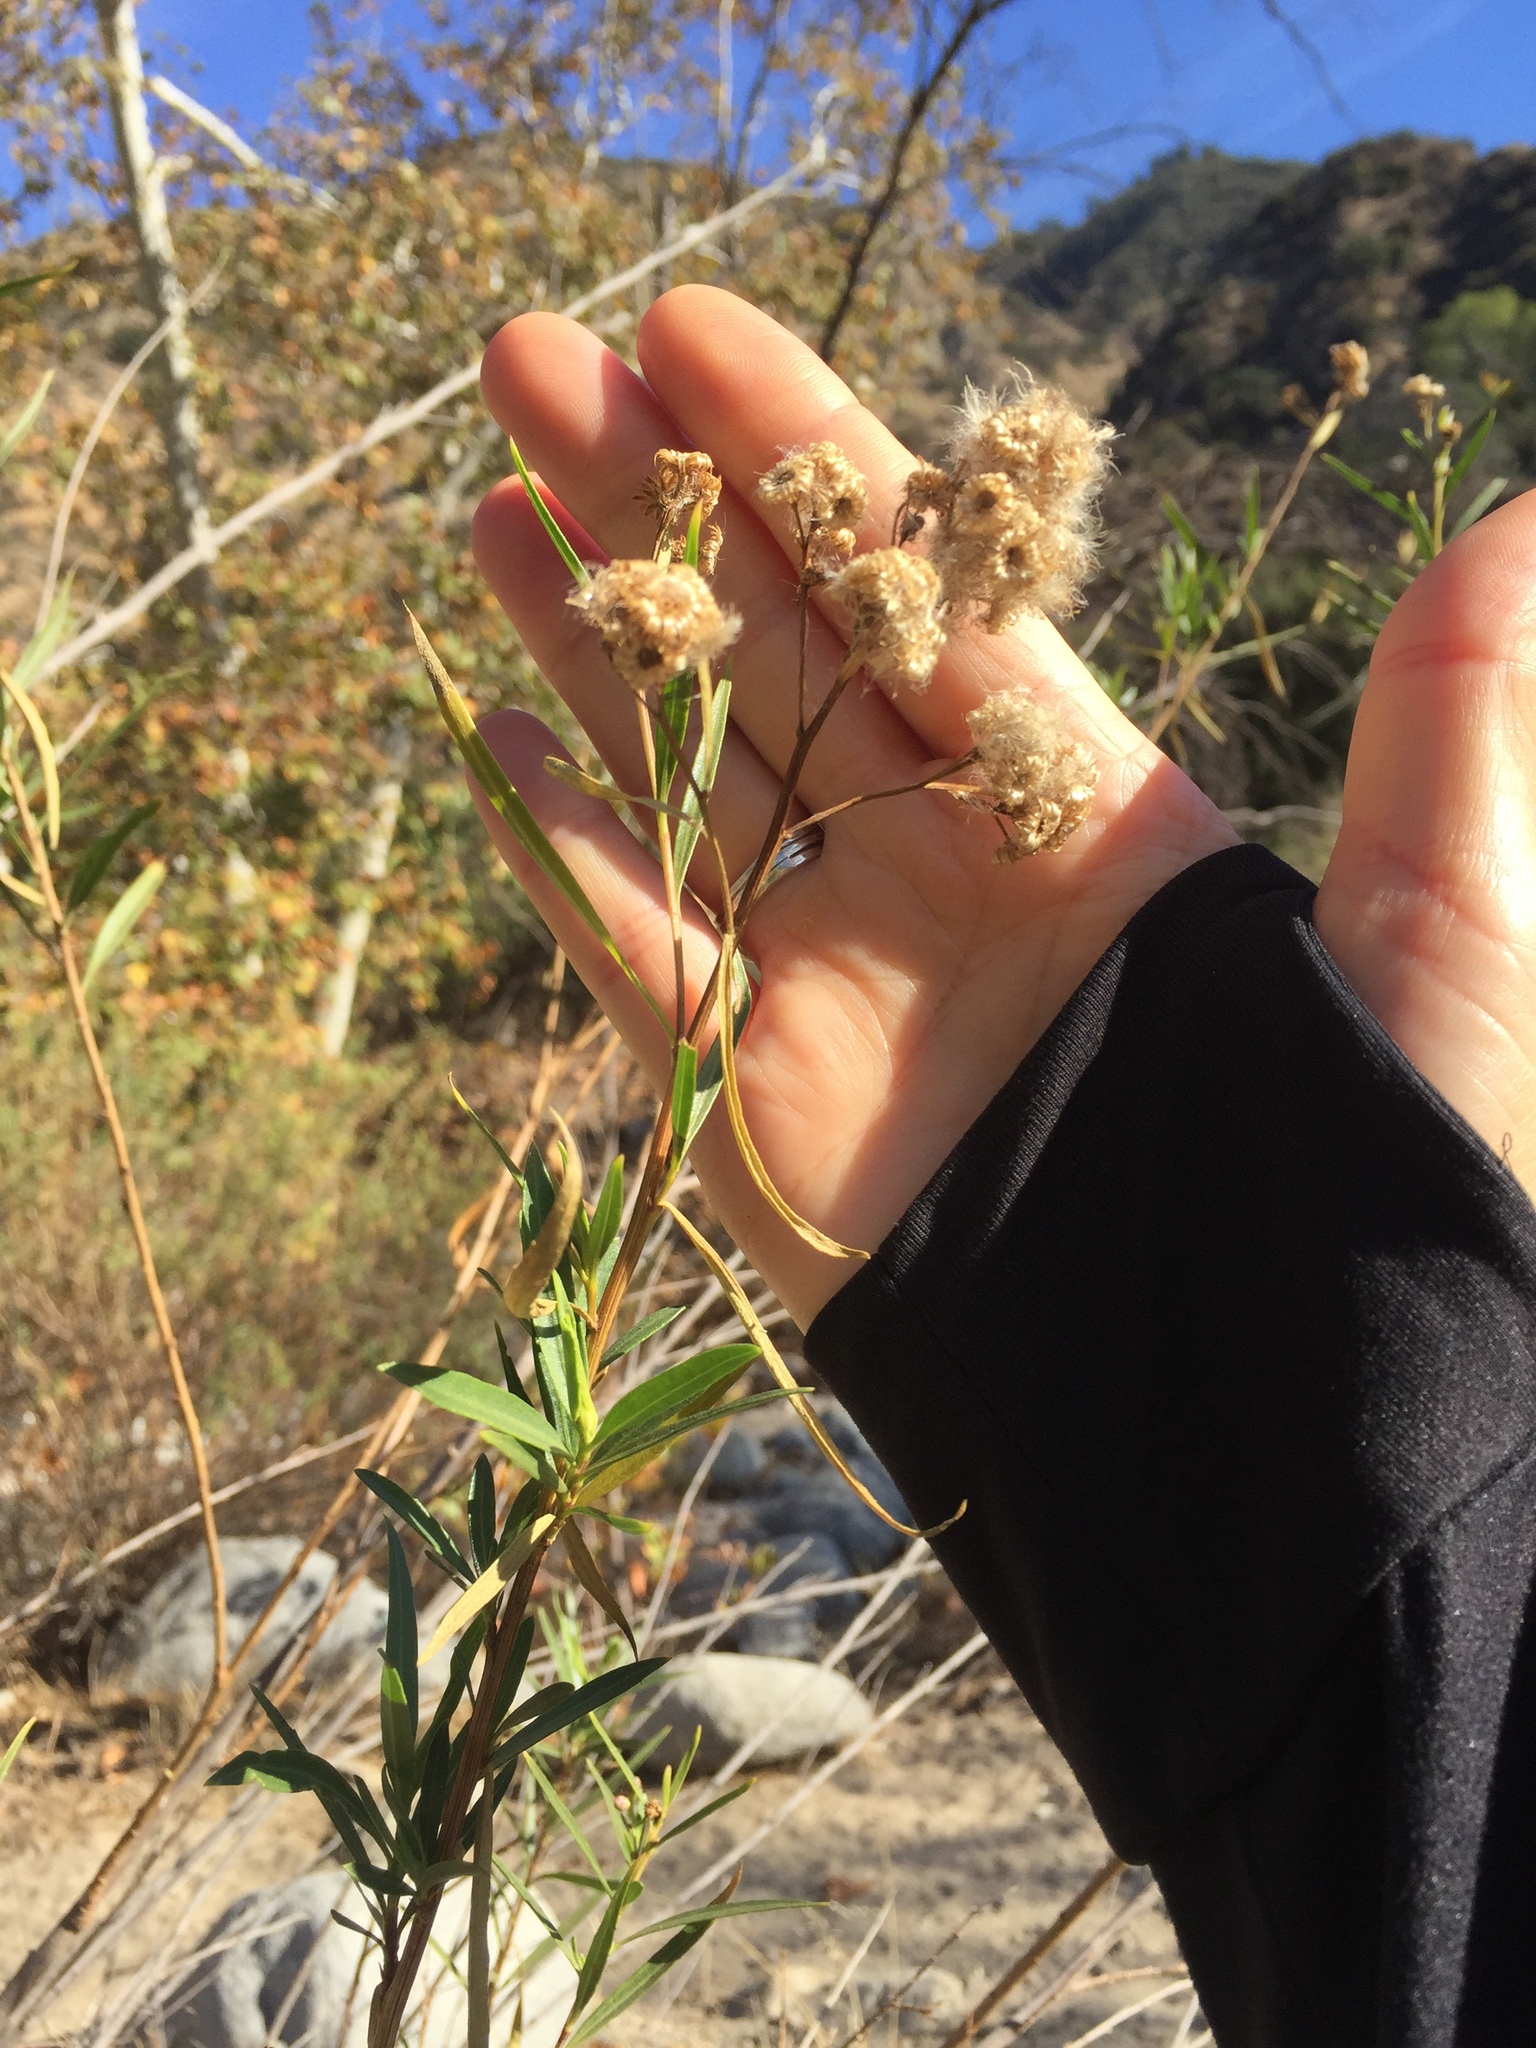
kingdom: Plantae
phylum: Tracheophyta
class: Magnoliopsida
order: Asterales
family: Asteraceae
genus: Baccharis
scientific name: Baccharis salicifolia
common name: Sticky baccharis
